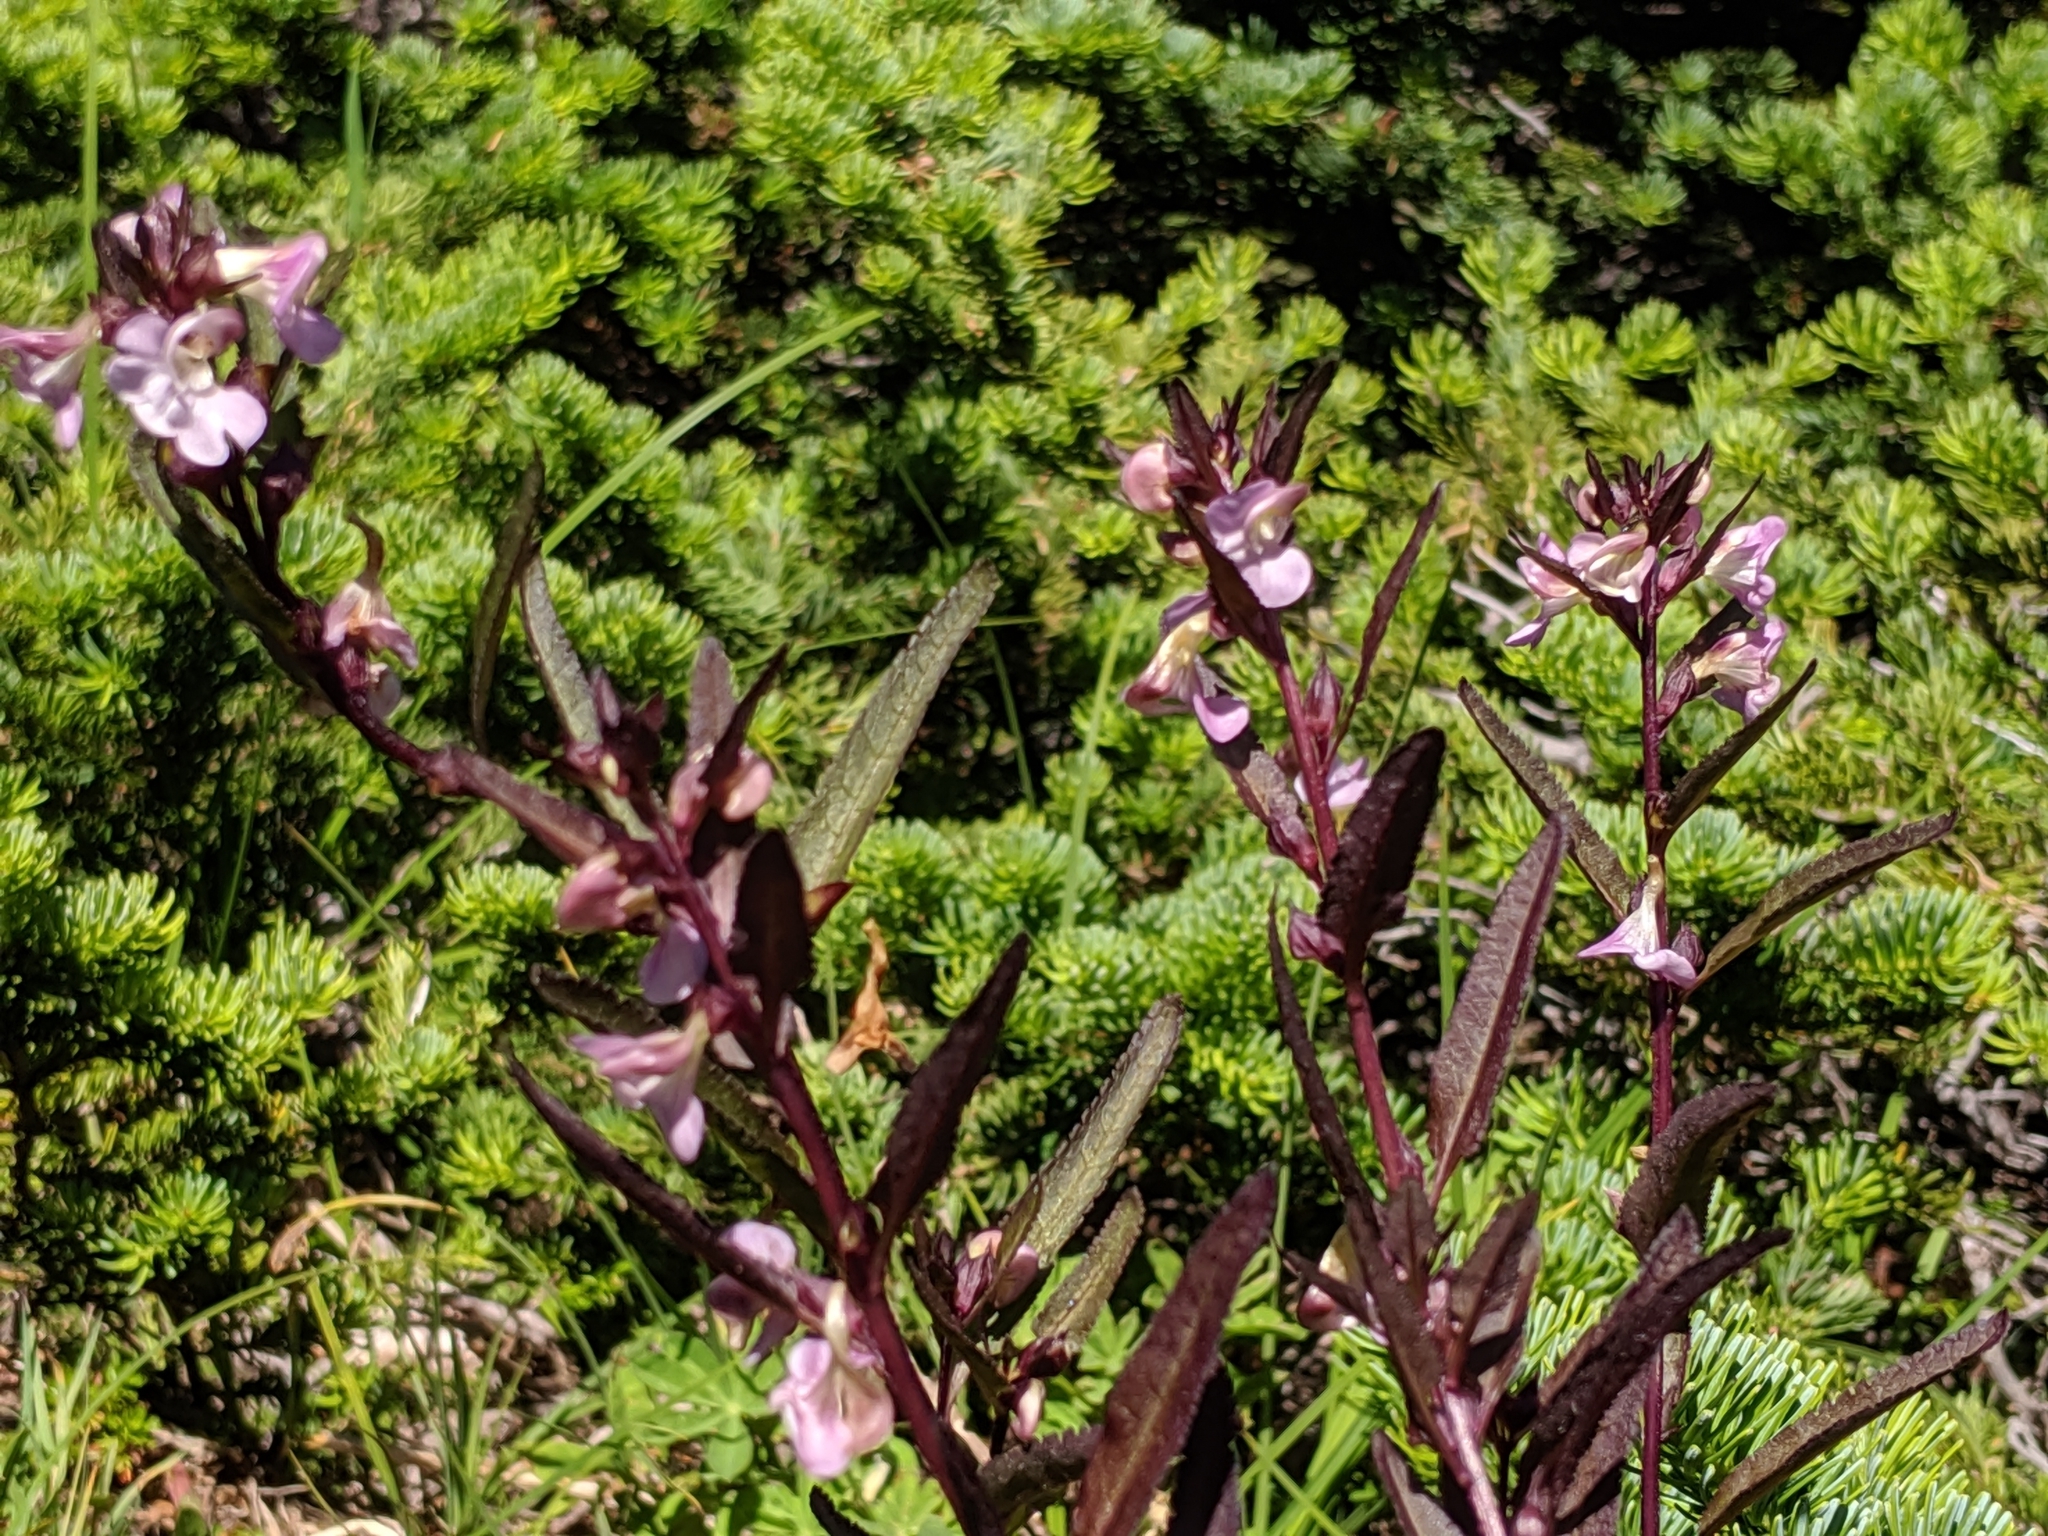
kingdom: Plantae
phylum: Tracheophyta
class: Magnoliopsida
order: Lamiales
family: Orobanchaceae
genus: Pedicularis
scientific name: Pedicularis racemosa
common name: Leafy lousewort
